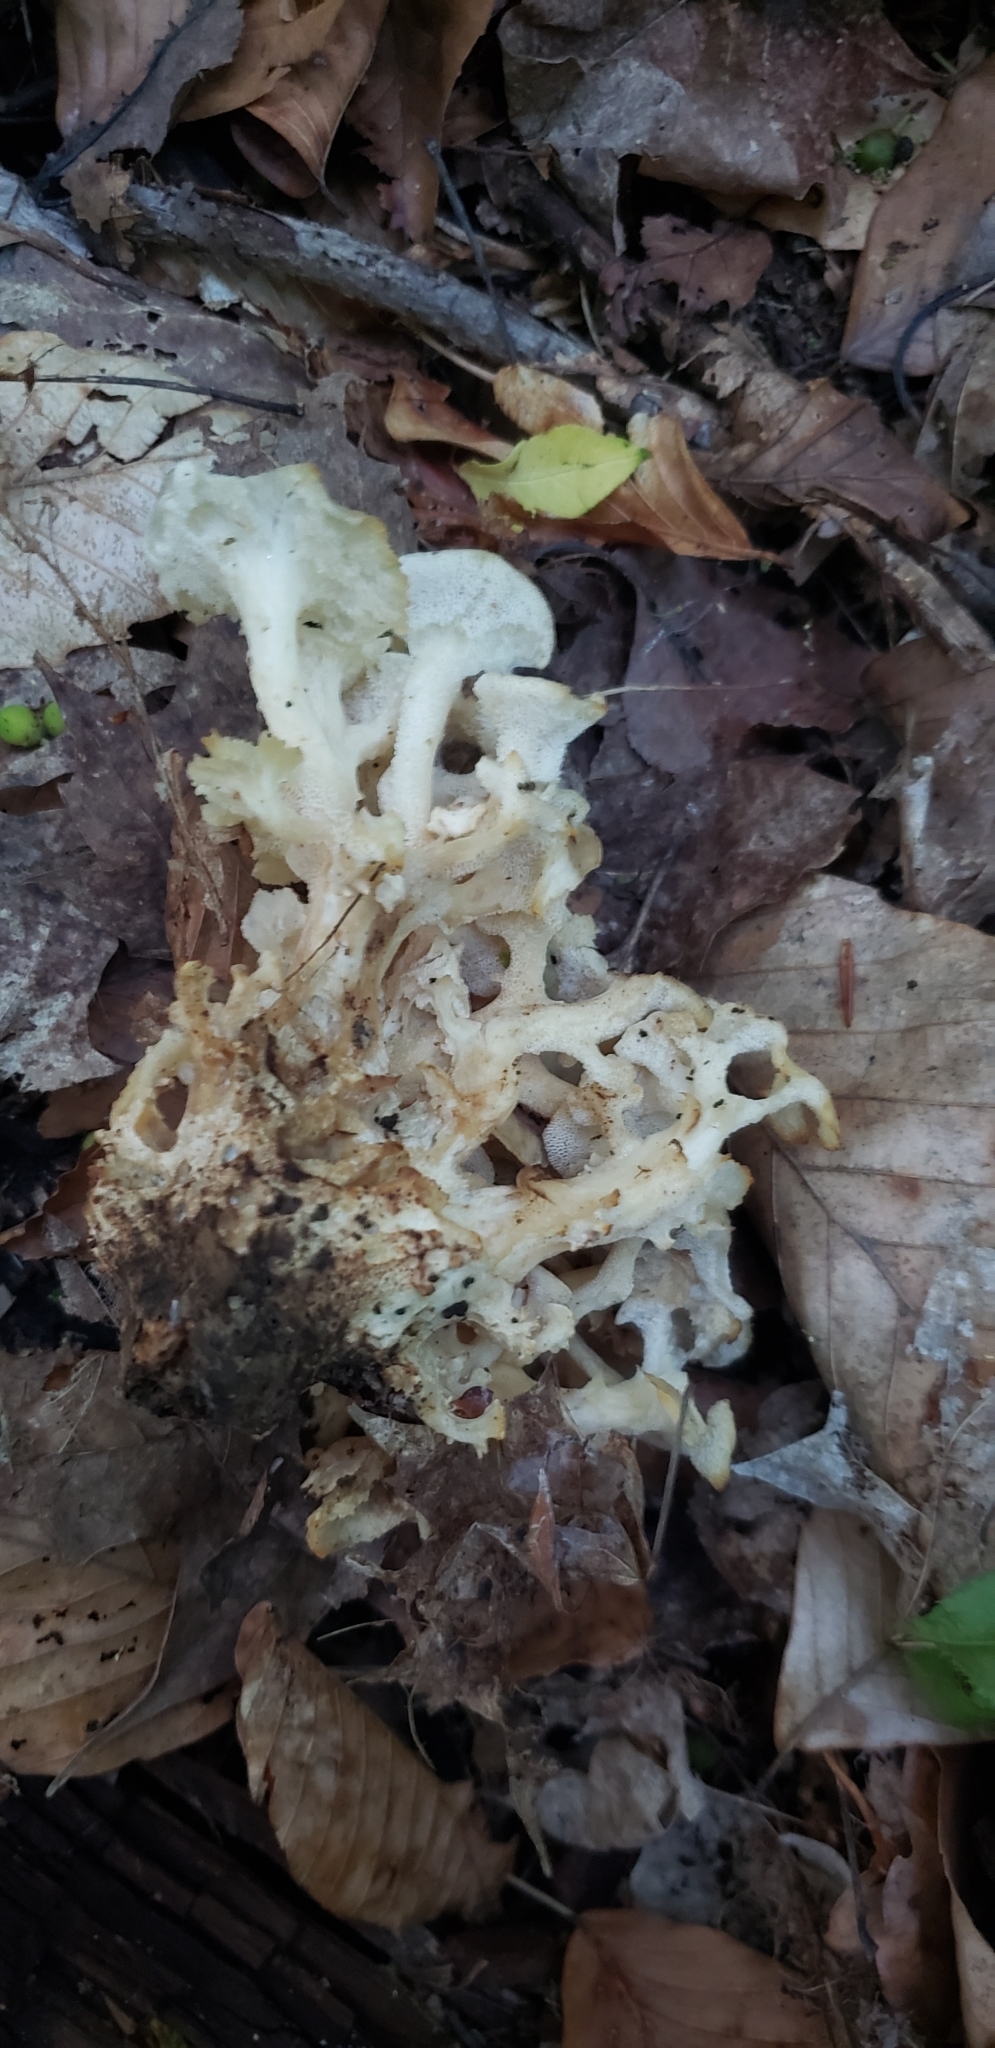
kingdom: Fungi
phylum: Basidiomycota
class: Agaricomycetes
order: Polyporales
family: Polyporaceae
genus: Polyporus
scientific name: Polyporus umbellatus
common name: Umbrella polypore
